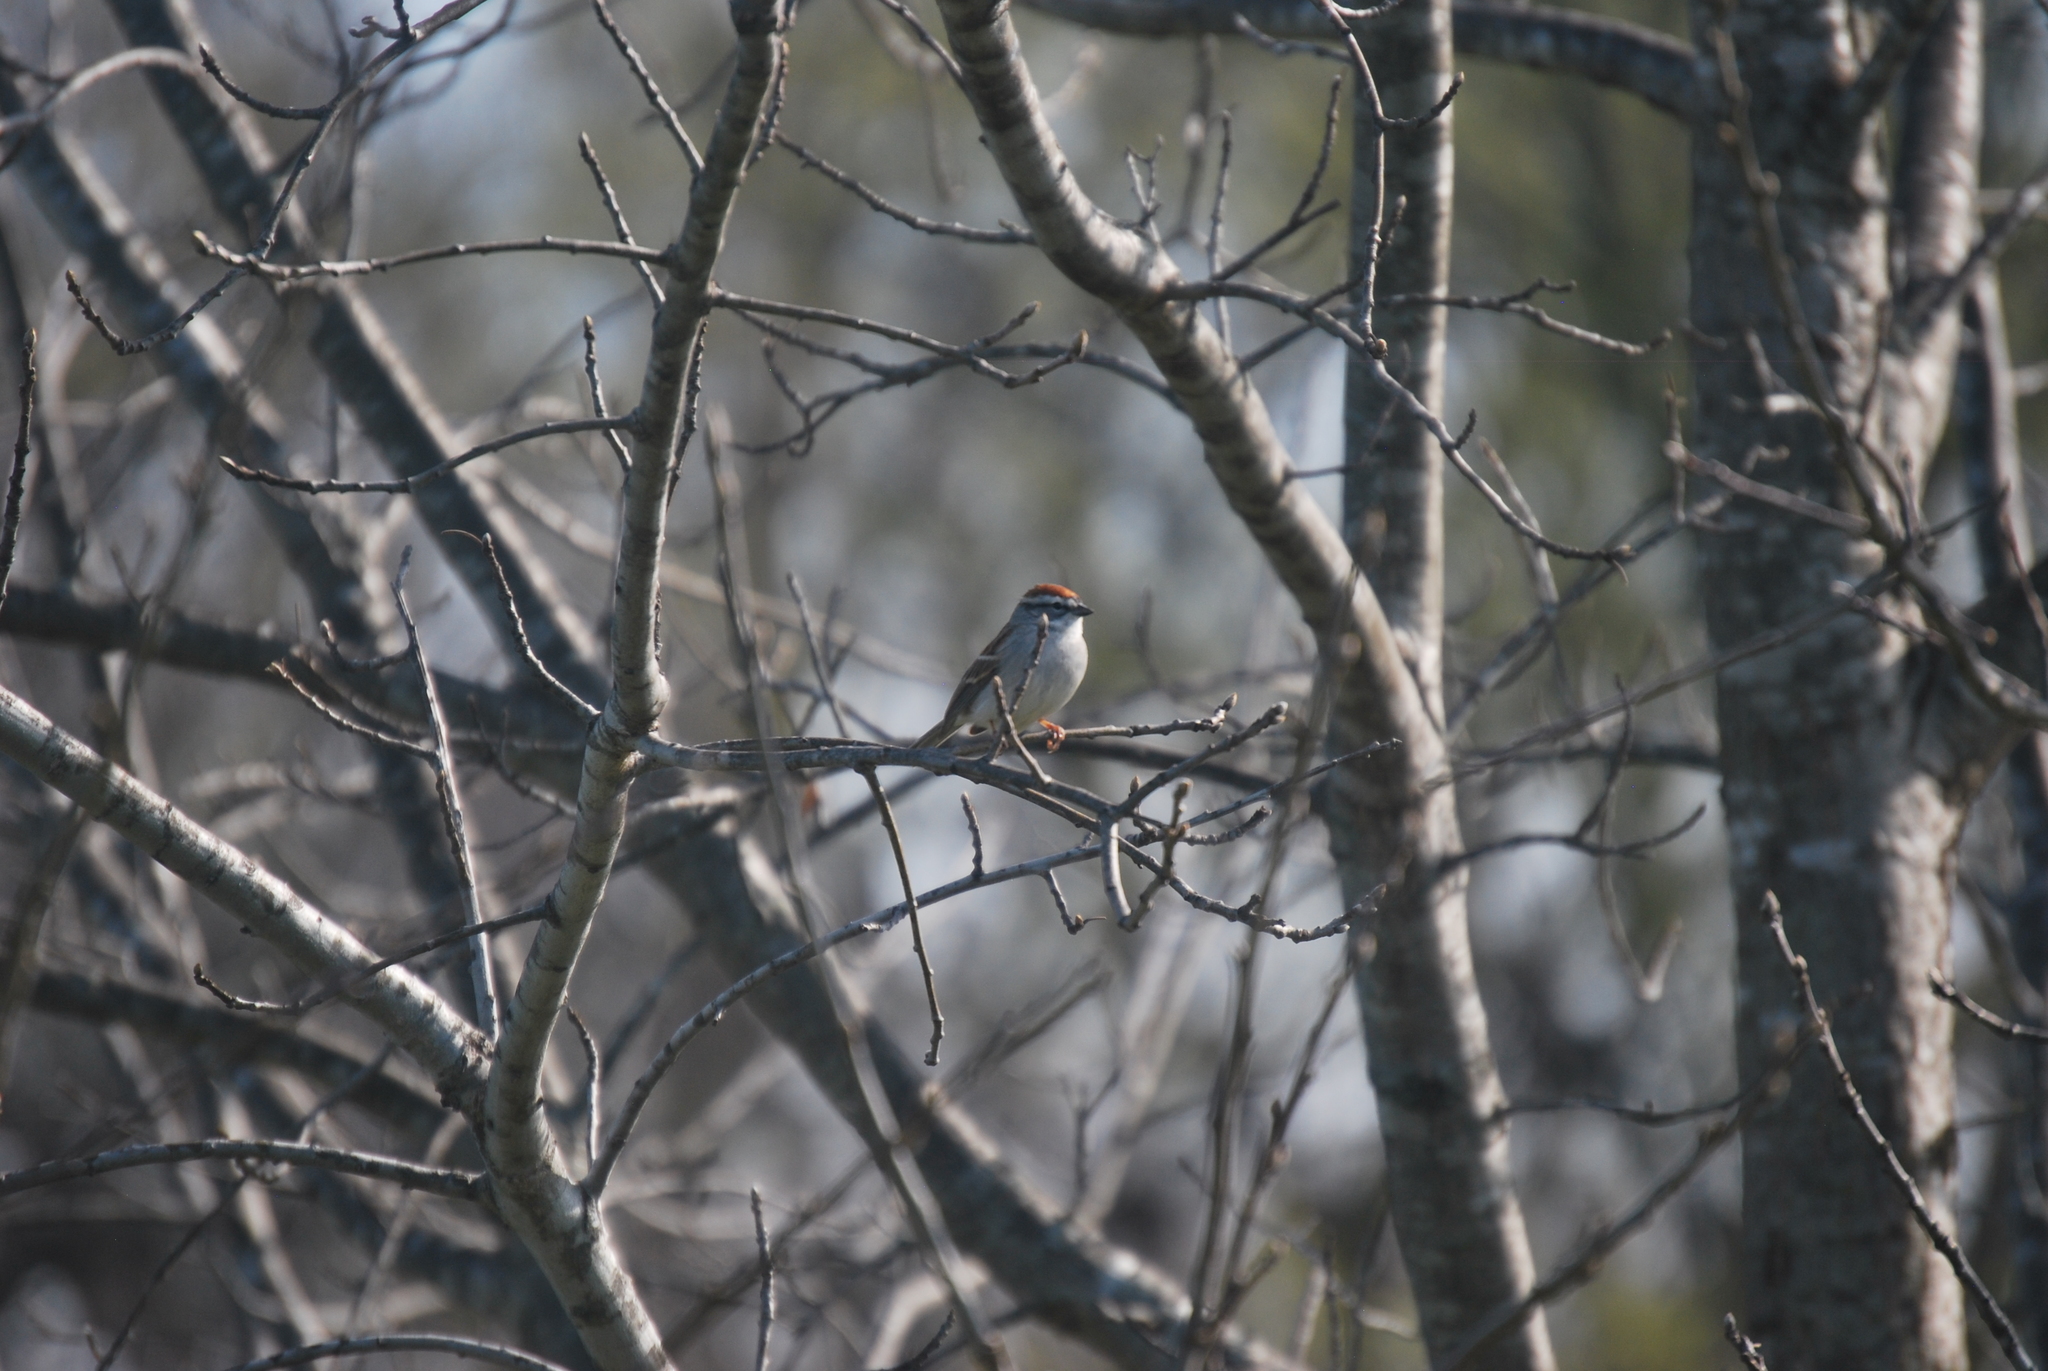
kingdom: Animalia
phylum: Chordata
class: Aves
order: Passeriformes
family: Passerellidae
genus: Spizella
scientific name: Spizella passerina
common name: Chipping sparrow
